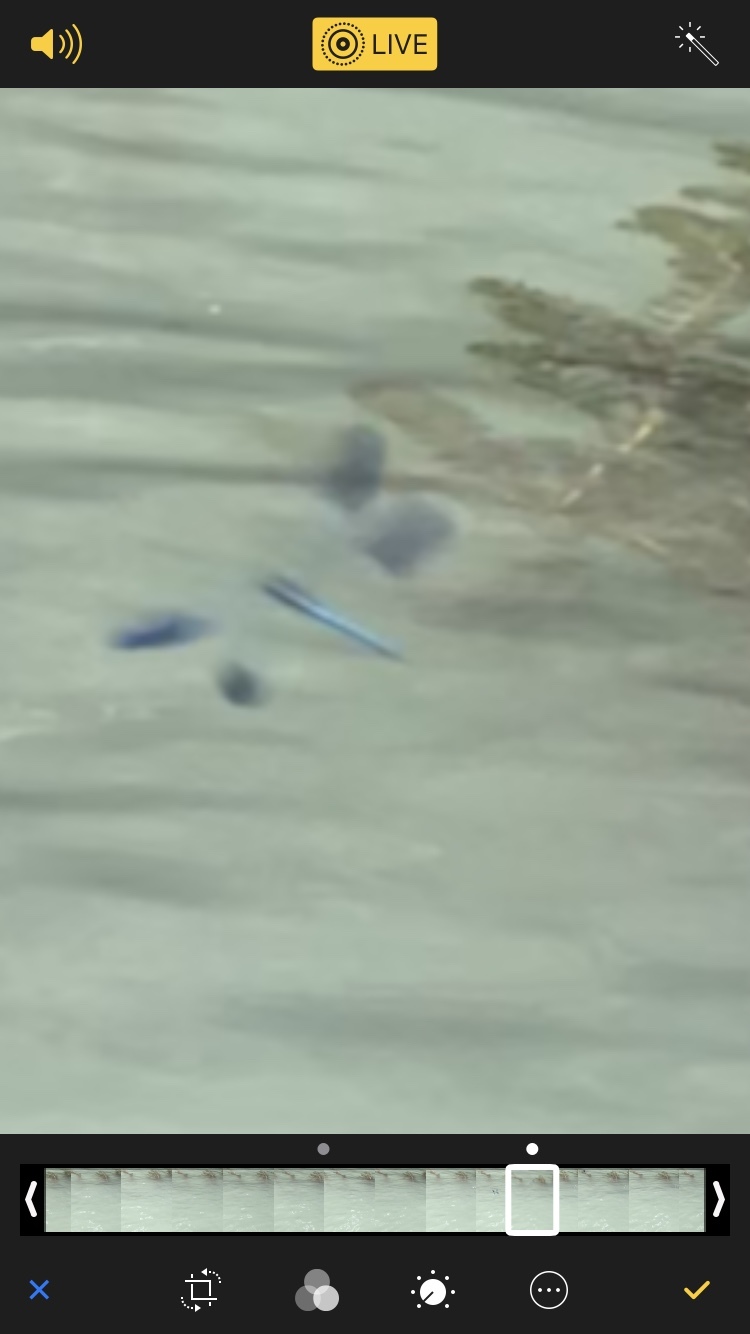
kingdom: Animalia
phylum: Arthropoda
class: Insecta
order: Odonata
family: Calopterygidae
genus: Calopteryx
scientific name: Calopteryx splendens
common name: Banded demoiselle
